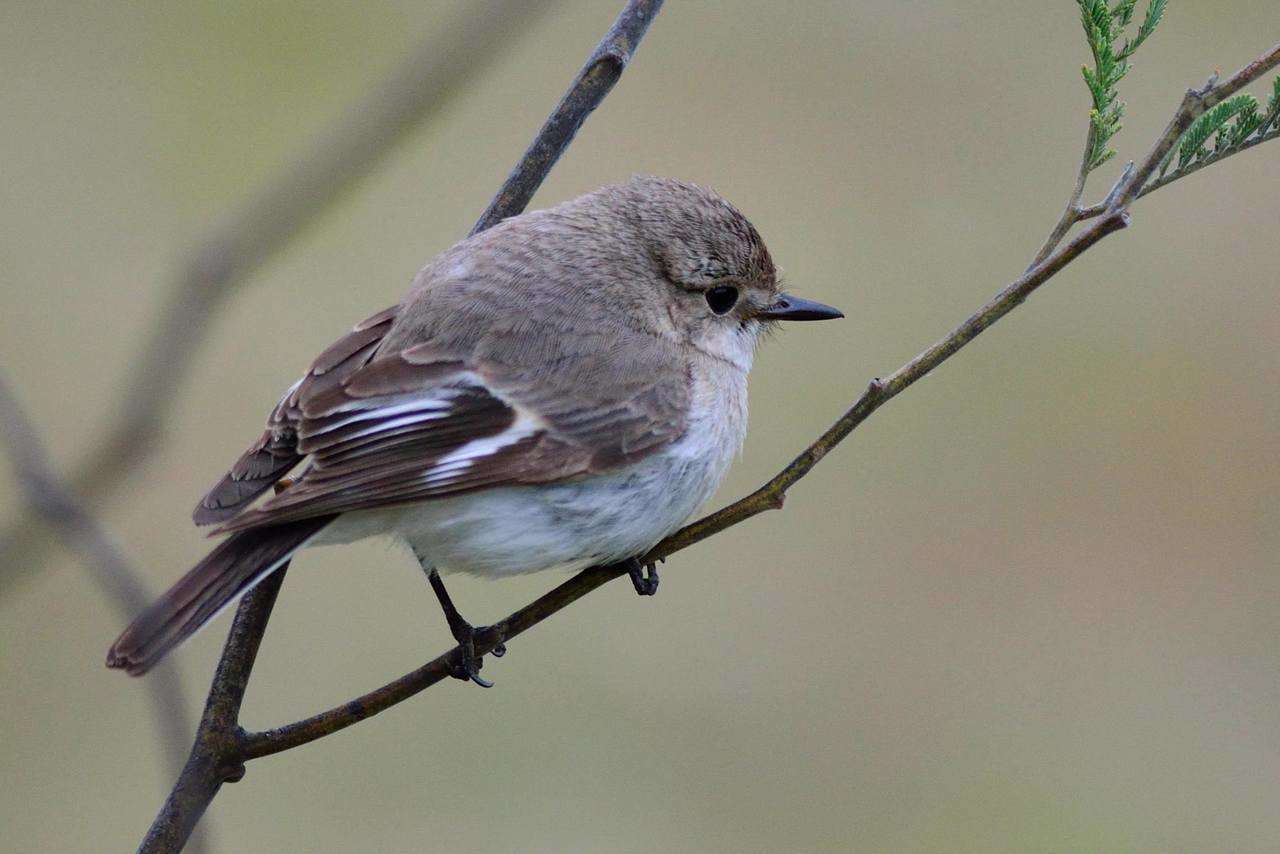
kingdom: Animalia
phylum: Chordata
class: Aves
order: Passeriformes
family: Petroicidae
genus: Petroica
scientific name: Petroica phoenicea
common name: Flame robin
